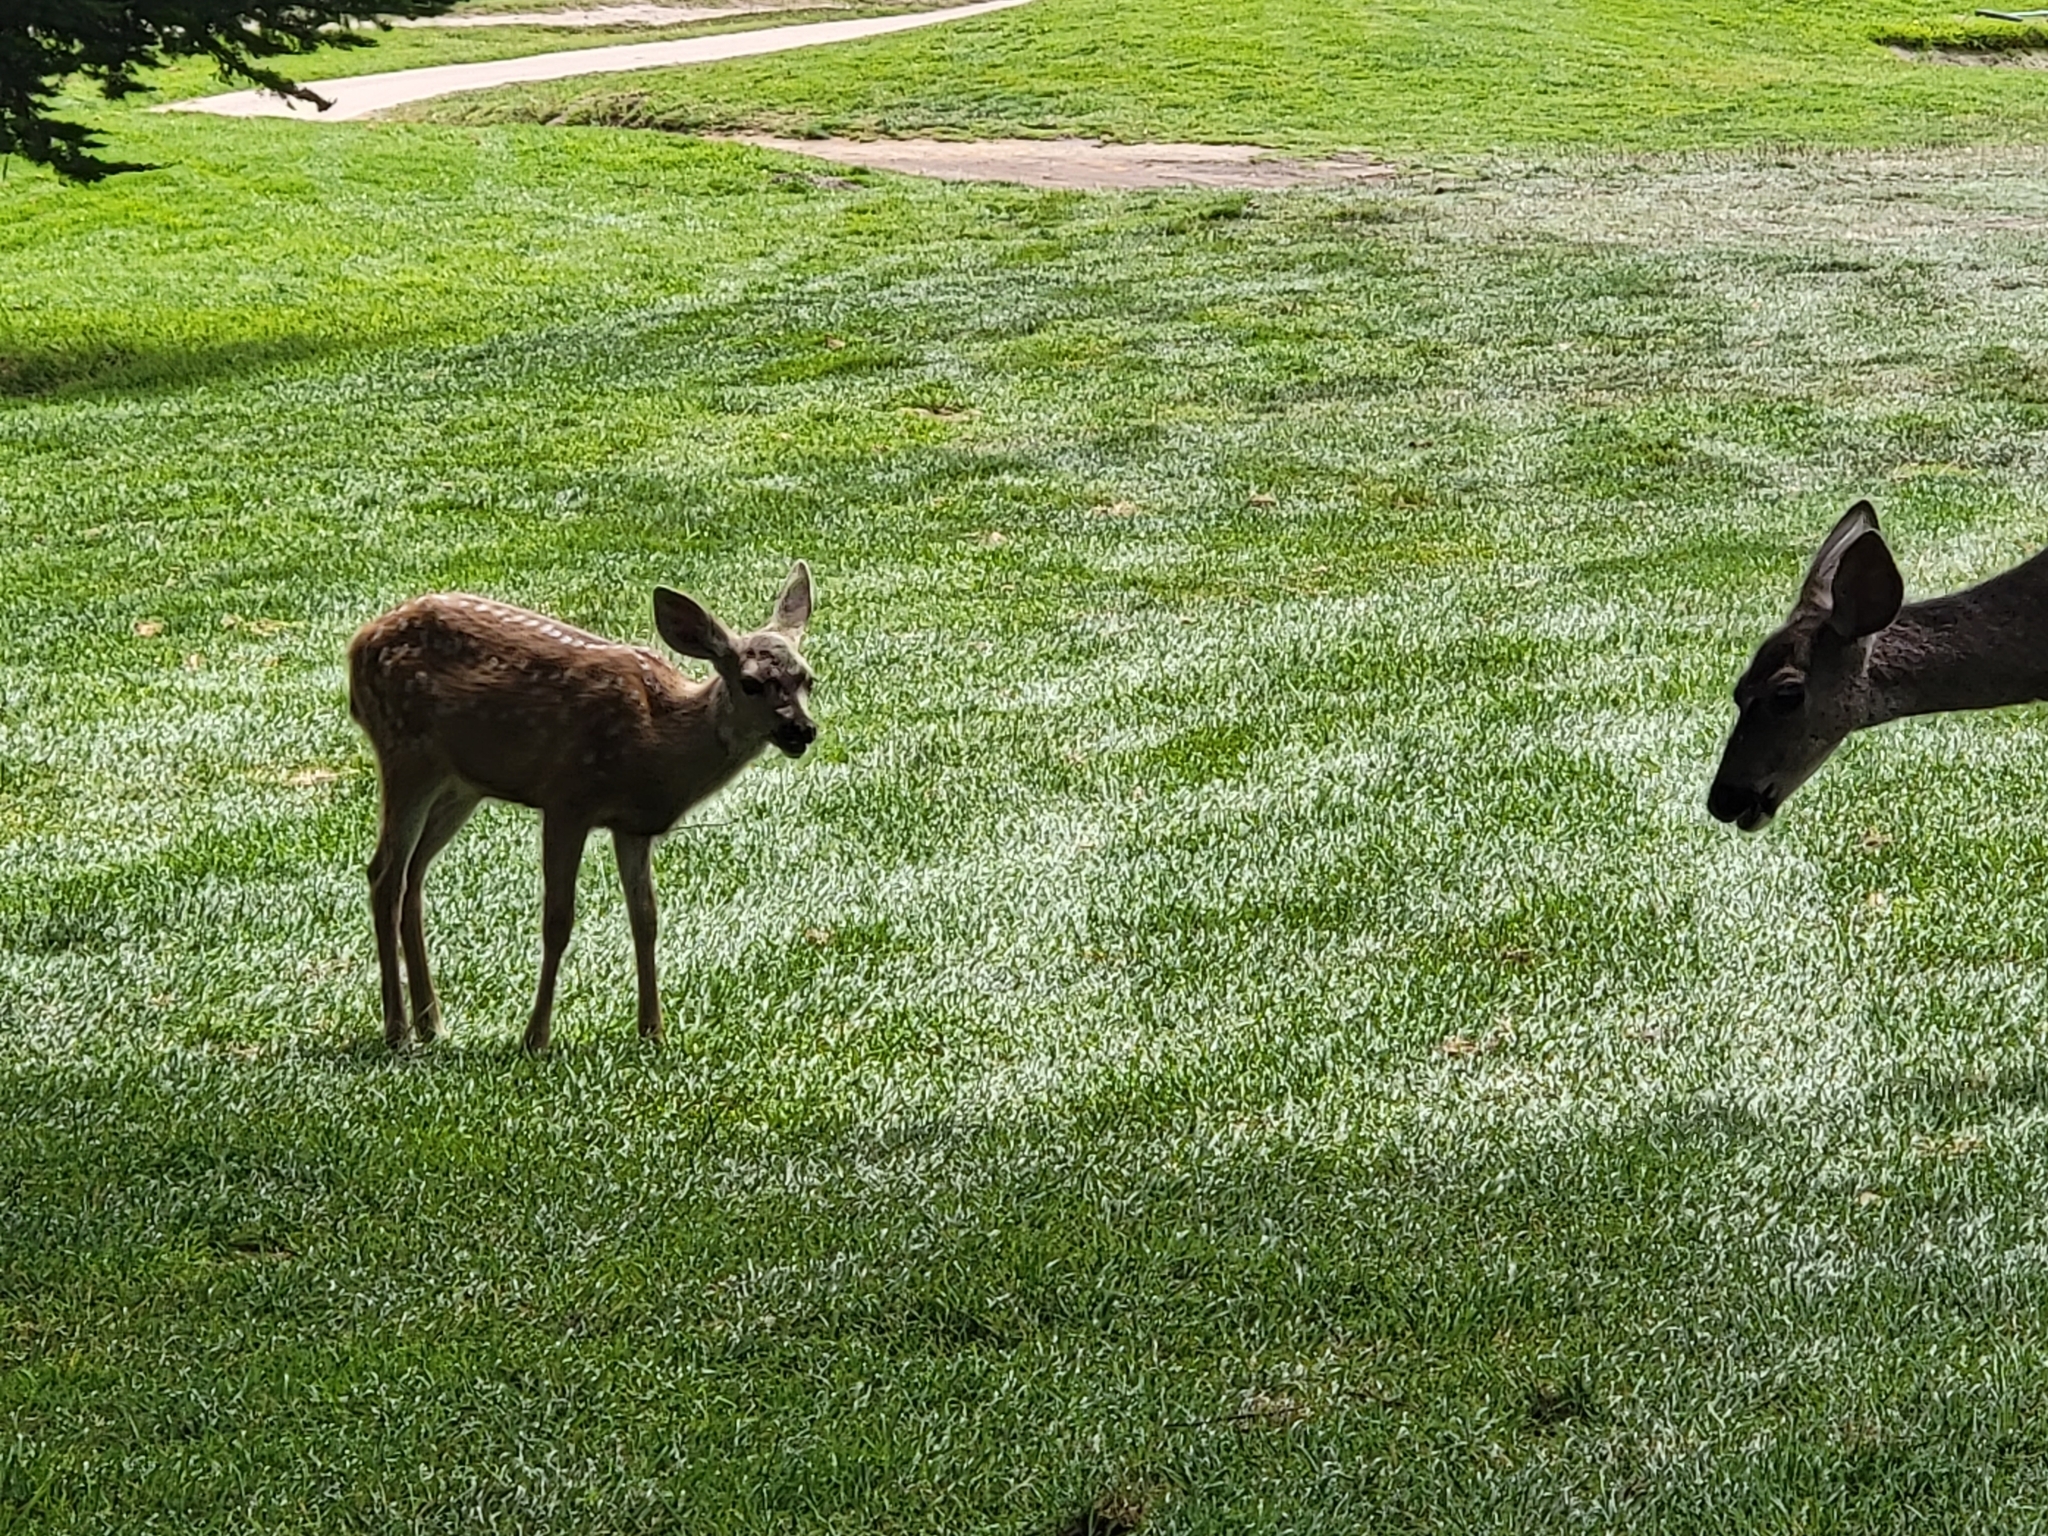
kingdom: Animalia
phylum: Chordata
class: Mammalia
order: Artiodactyla
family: Cervidae
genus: Odocoileus
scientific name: Odocoileus hemionus
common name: Mule deer
